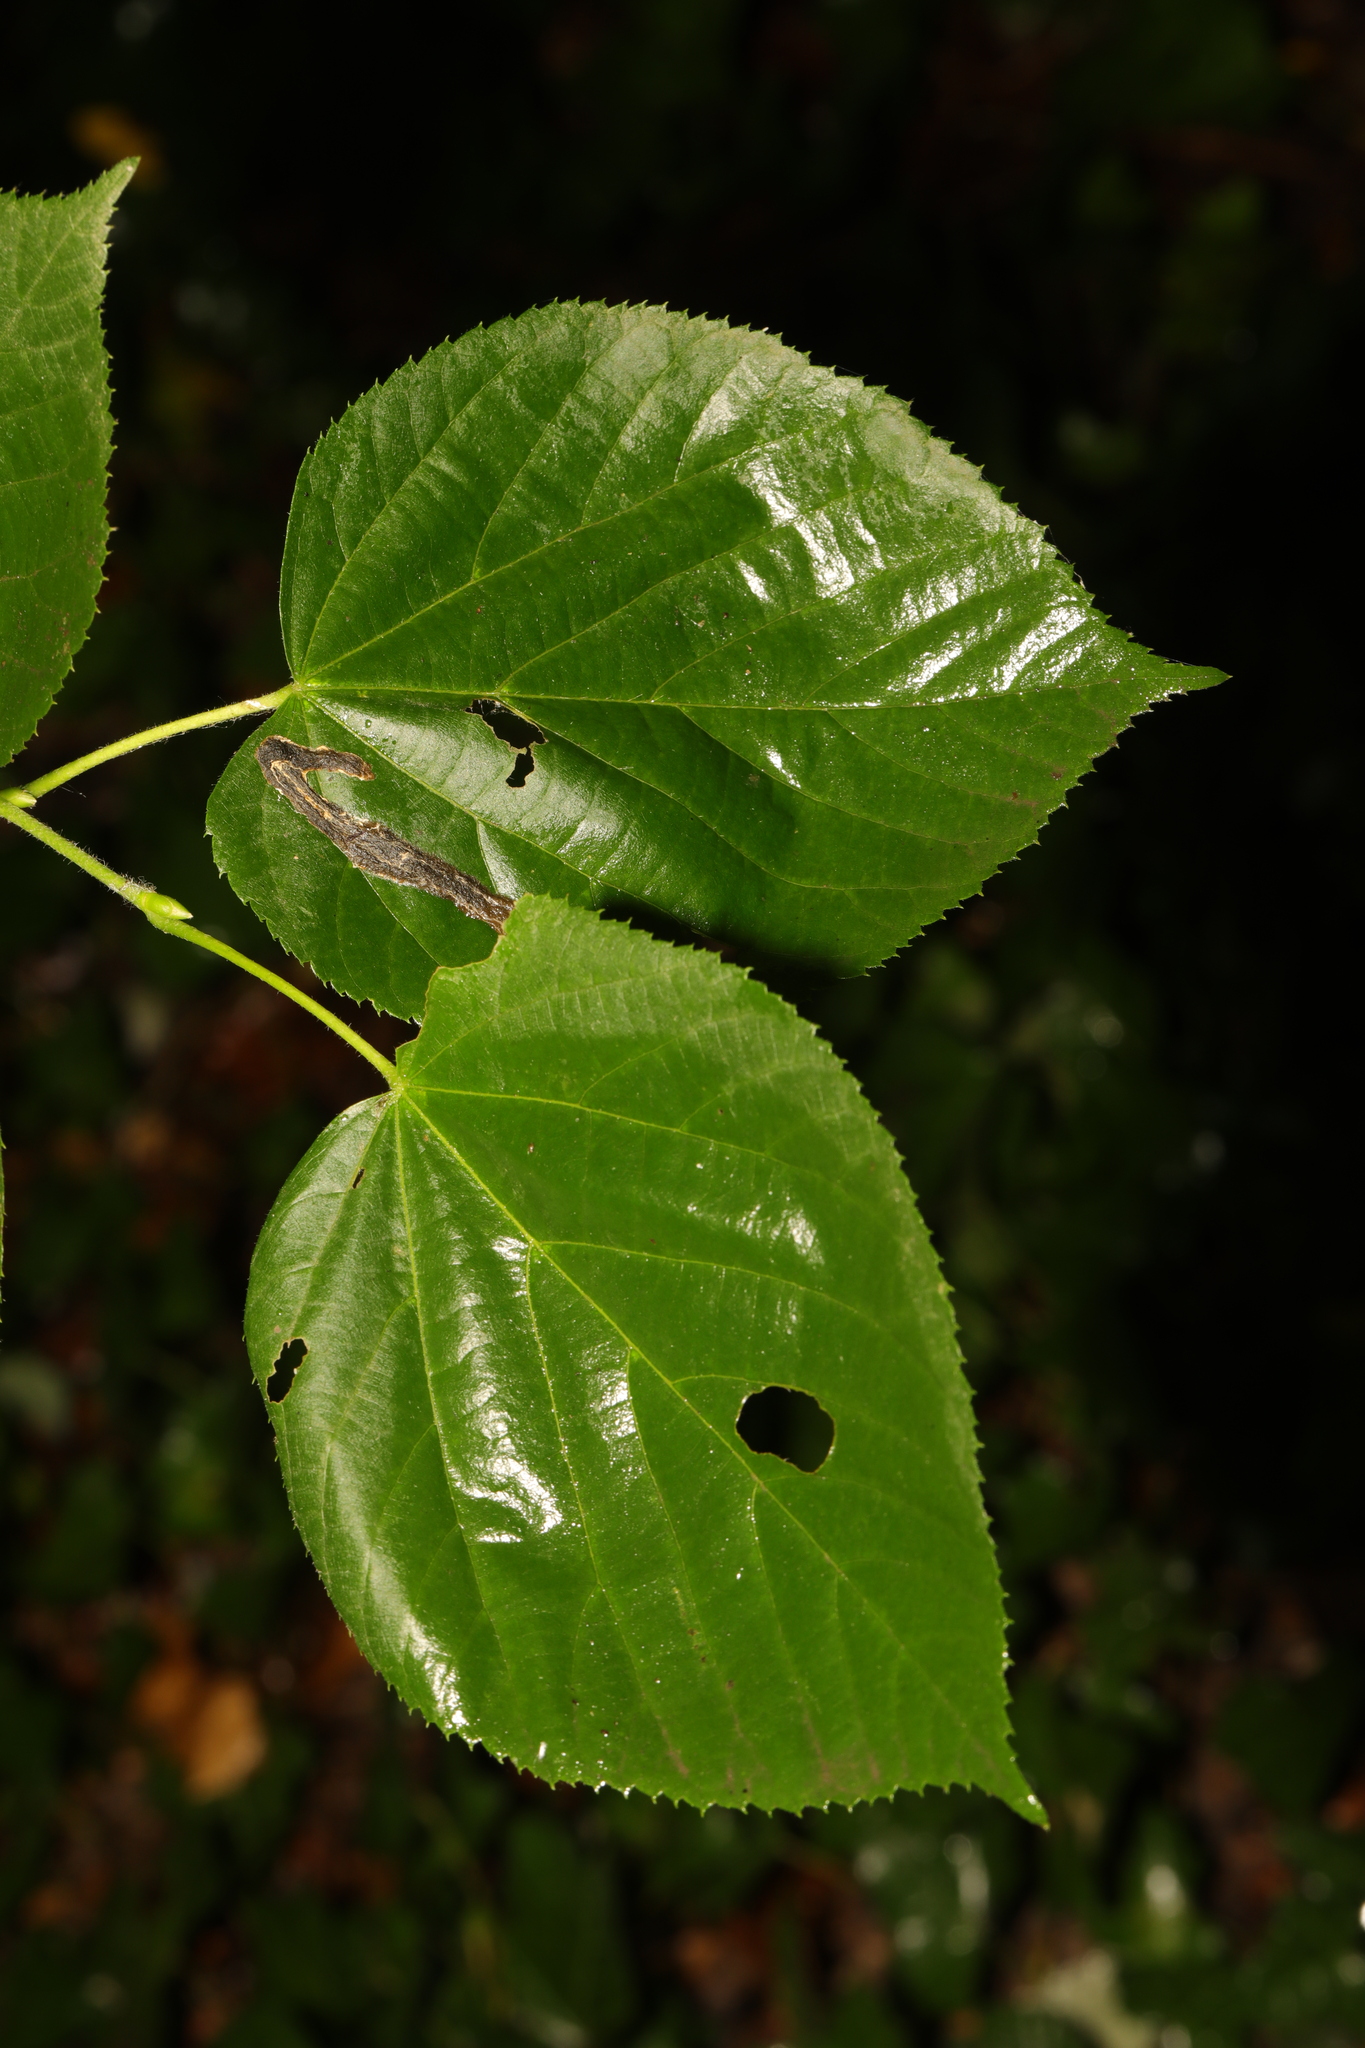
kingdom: Plantae
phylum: Tracheophyta
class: Magnoliopsida
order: Malvales
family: Malvaceae
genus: Tilia
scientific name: Tilia europaea
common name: European linden
